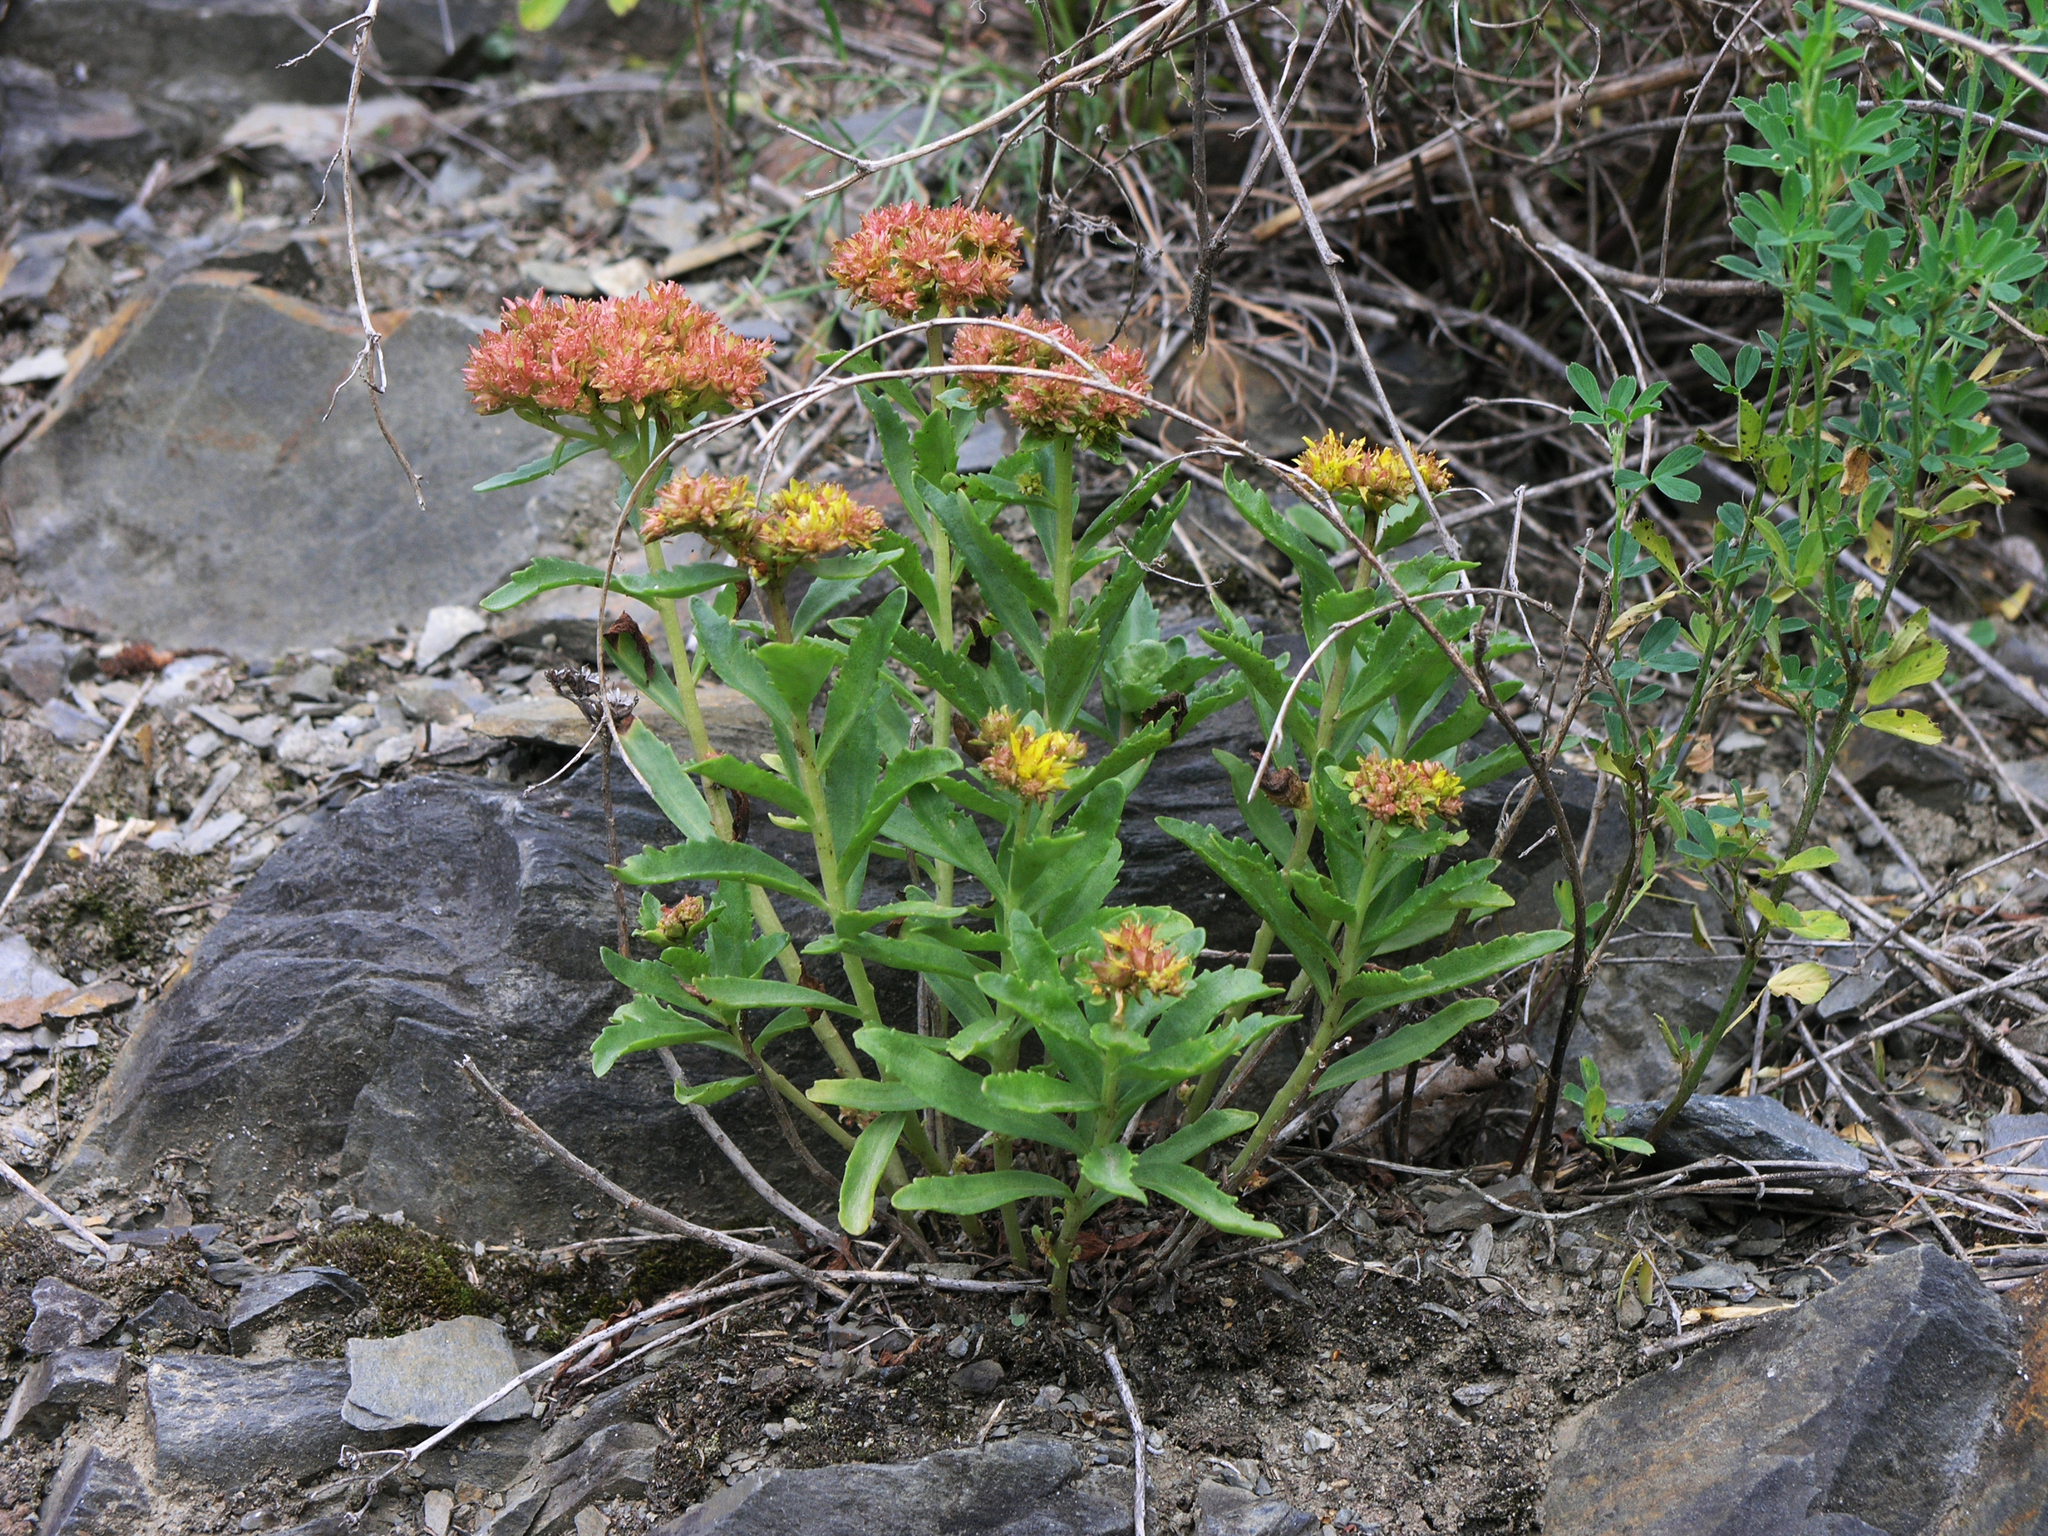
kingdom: Plantae
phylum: Tracheophyta
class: Magnoliopsida
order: Saxifragales
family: Crassulaceae
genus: Phedimus
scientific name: Phedimus aizoon
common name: Orpin aizoon
